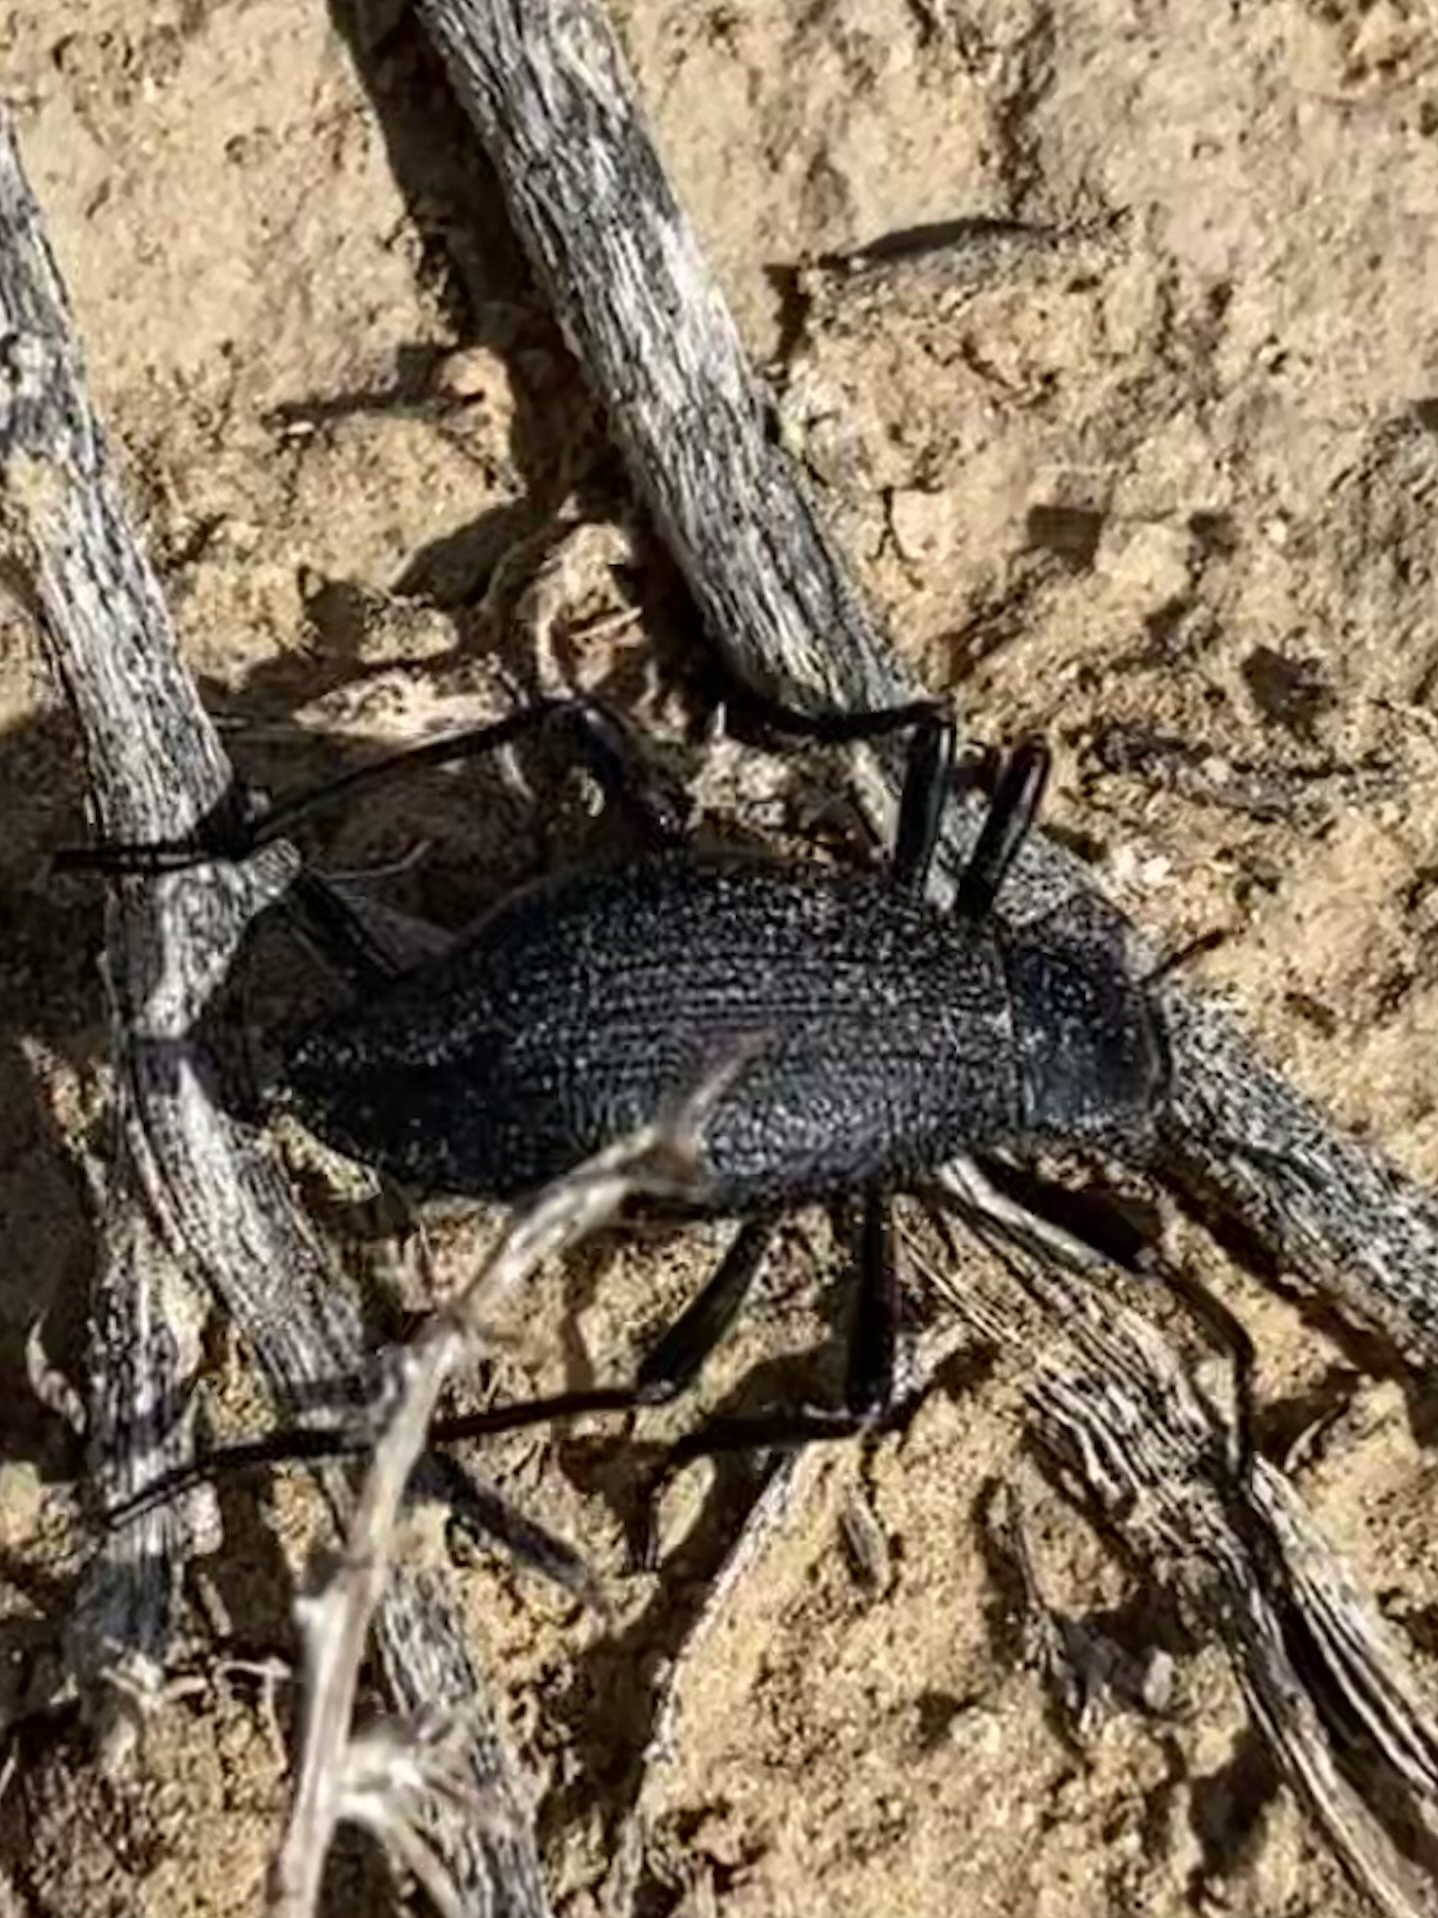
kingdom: Animalia
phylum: Arthropoda
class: Insecta
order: Coleoptera
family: Tenebrionidae
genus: Philolithus
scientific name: Philolithus elatus
